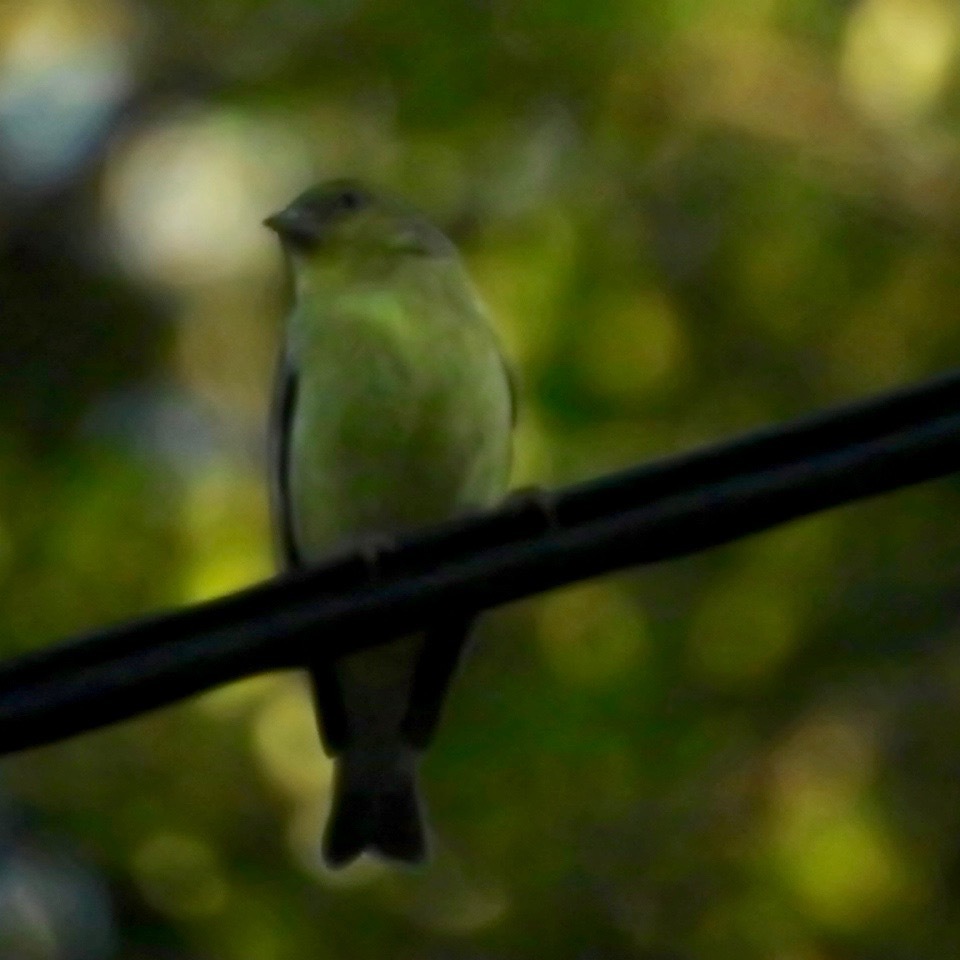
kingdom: Animalia
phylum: Chordata
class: Aves
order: Passeriformes
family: Fringillidae
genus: Spinus
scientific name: Spinus psaltria
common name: Lesser goldfinch
